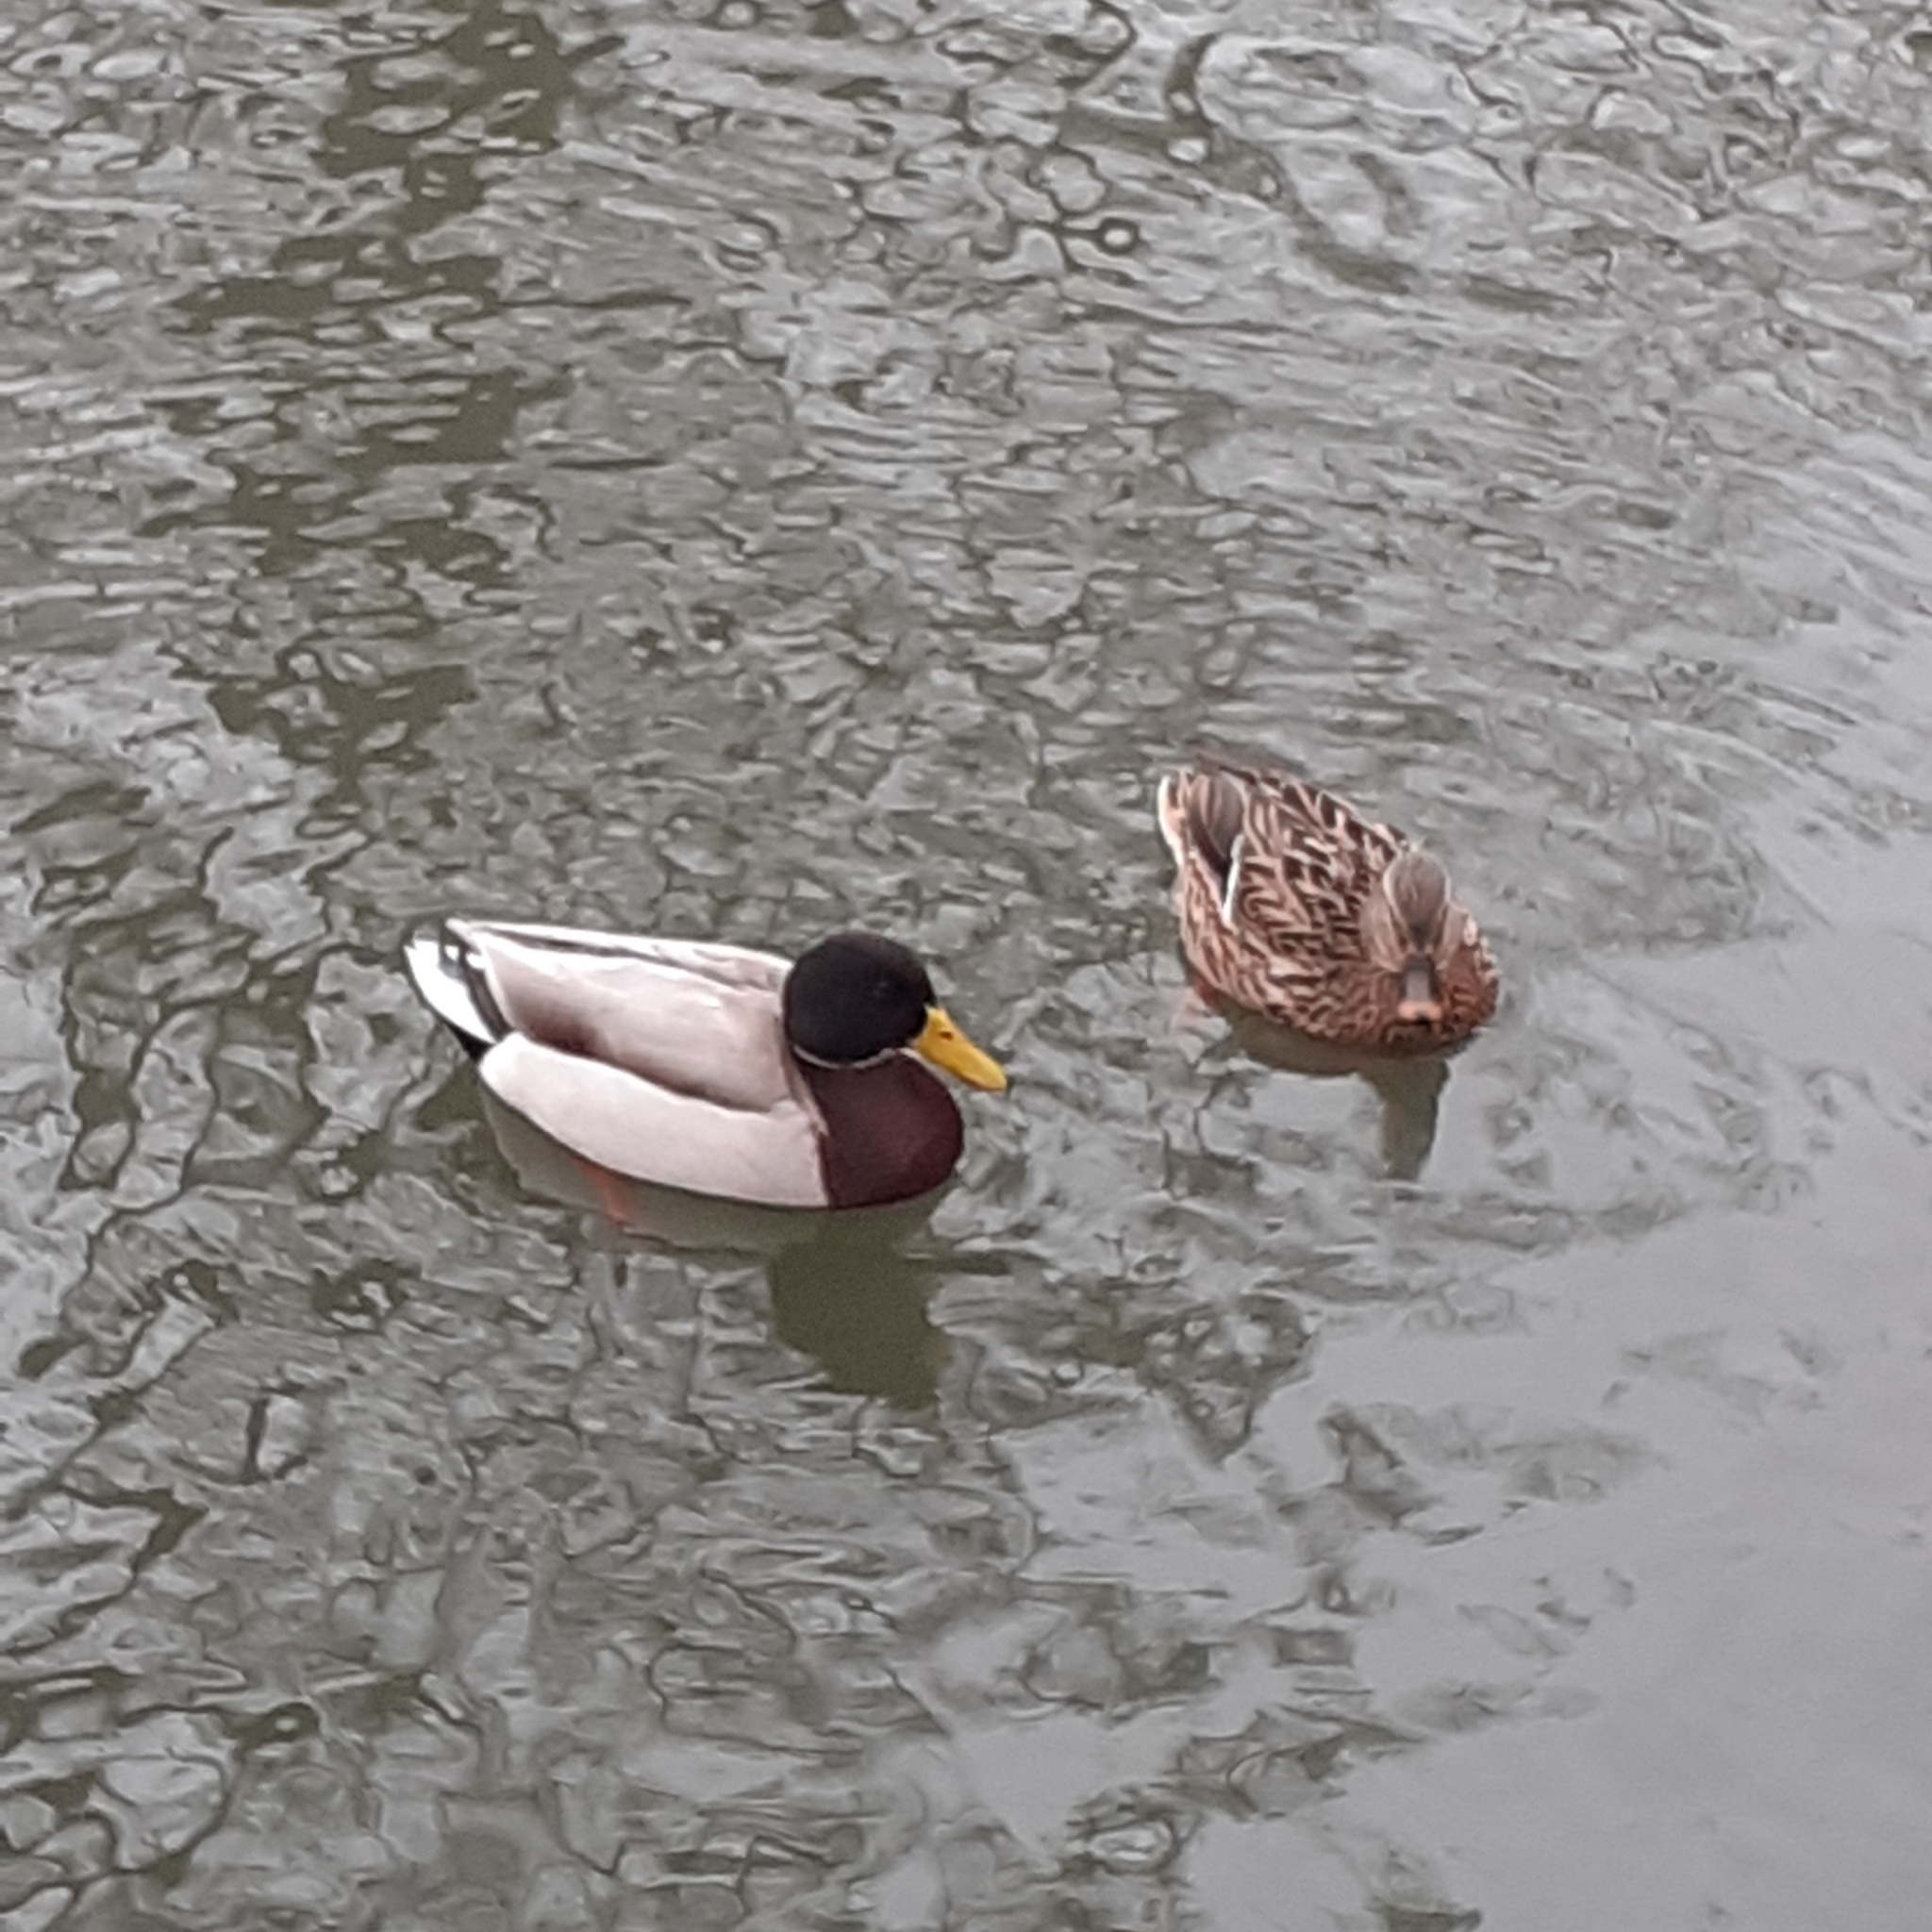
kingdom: Animalia
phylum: Chordata
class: Aves
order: Anseriformes
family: Anatidae
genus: Anas
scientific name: Anas platyrhynchos
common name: Mallard
